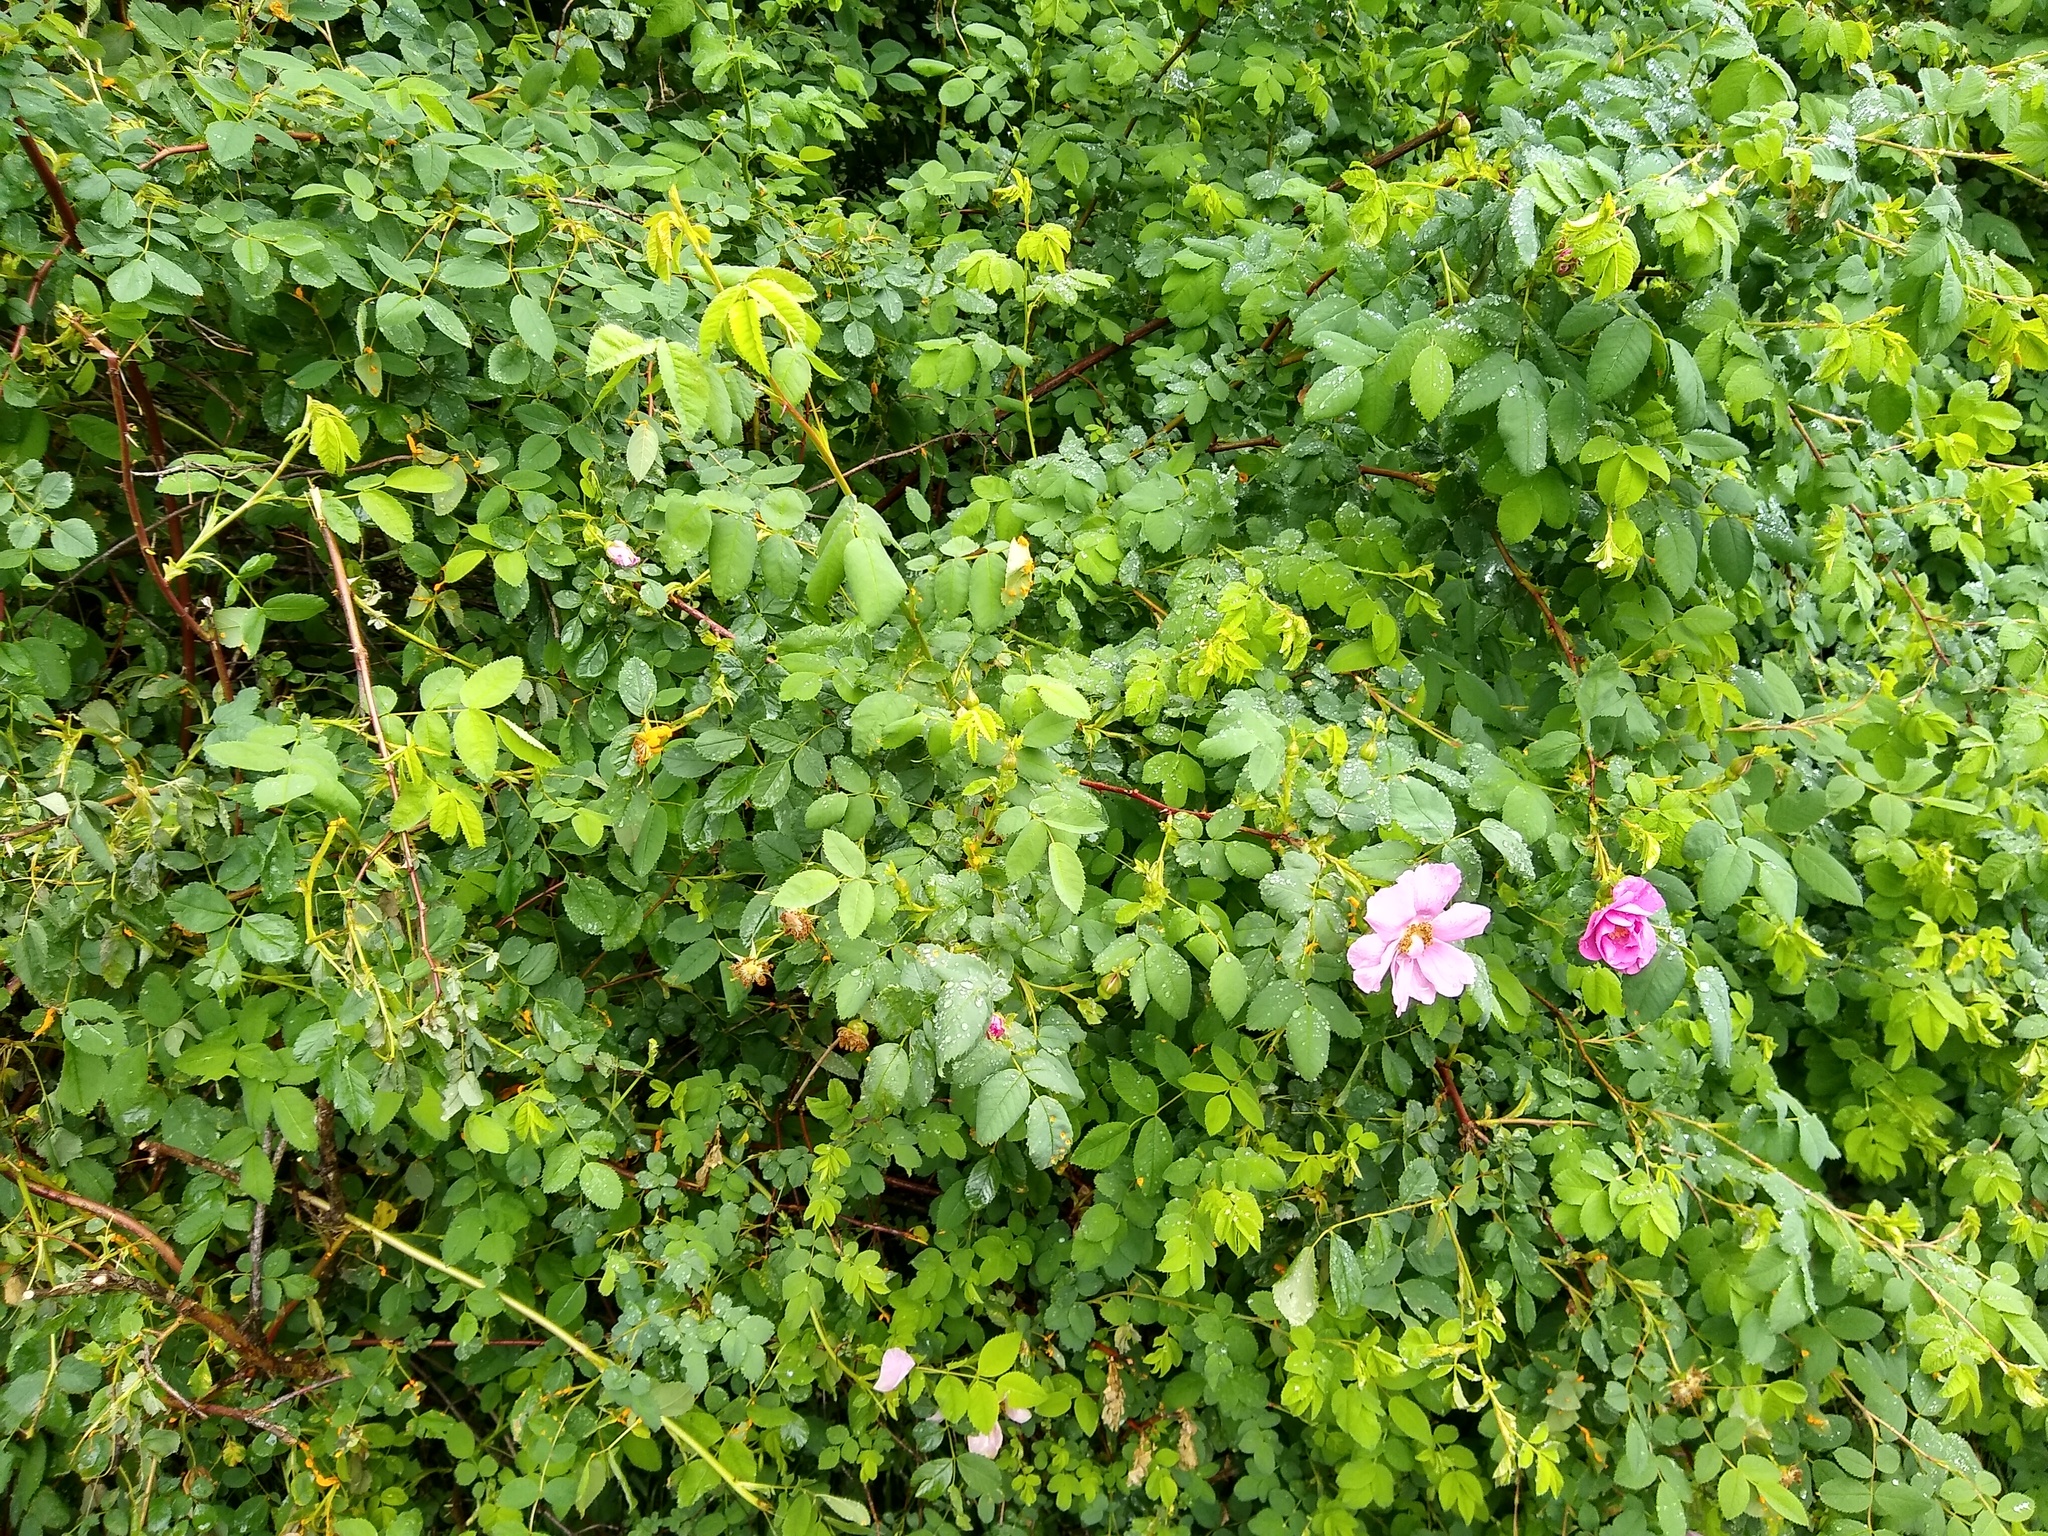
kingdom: Plantae
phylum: Tracheophyta
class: Magnoliopsida
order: Rosales
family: Rosaceae
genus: Rosa
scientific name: Rosa nutkana
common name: Nootka rose
